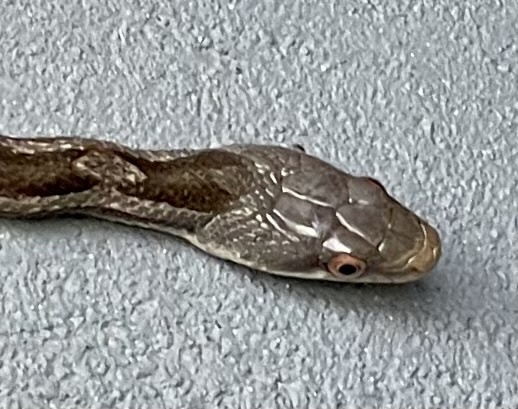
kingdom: Animalia
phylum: Chordata
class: Squamata
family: Colubridae
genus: Pantherophis
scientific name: Pantherophis obsoletus
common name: Black rat snake
